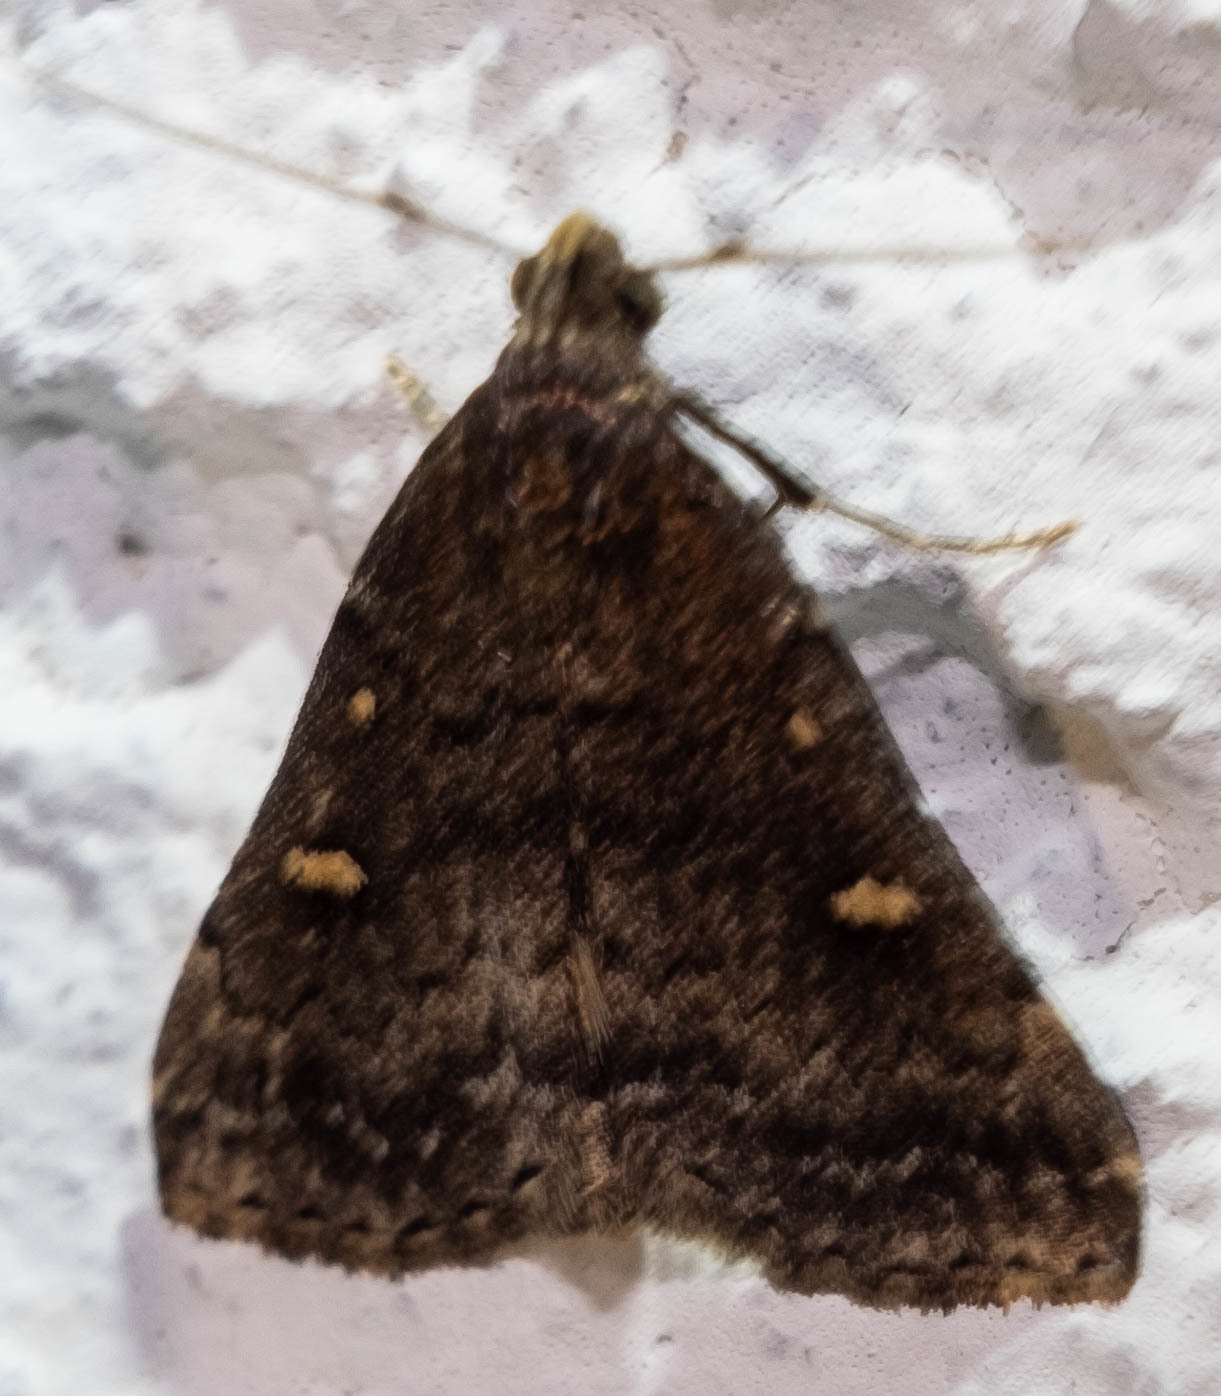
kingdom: Animalia
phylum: Arthropoda
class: Insecta
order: Lepidoptera
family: Erebidae
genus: Tetanolita
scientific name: Tetanolita mynesalis
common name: Smoky tetanolita moth
